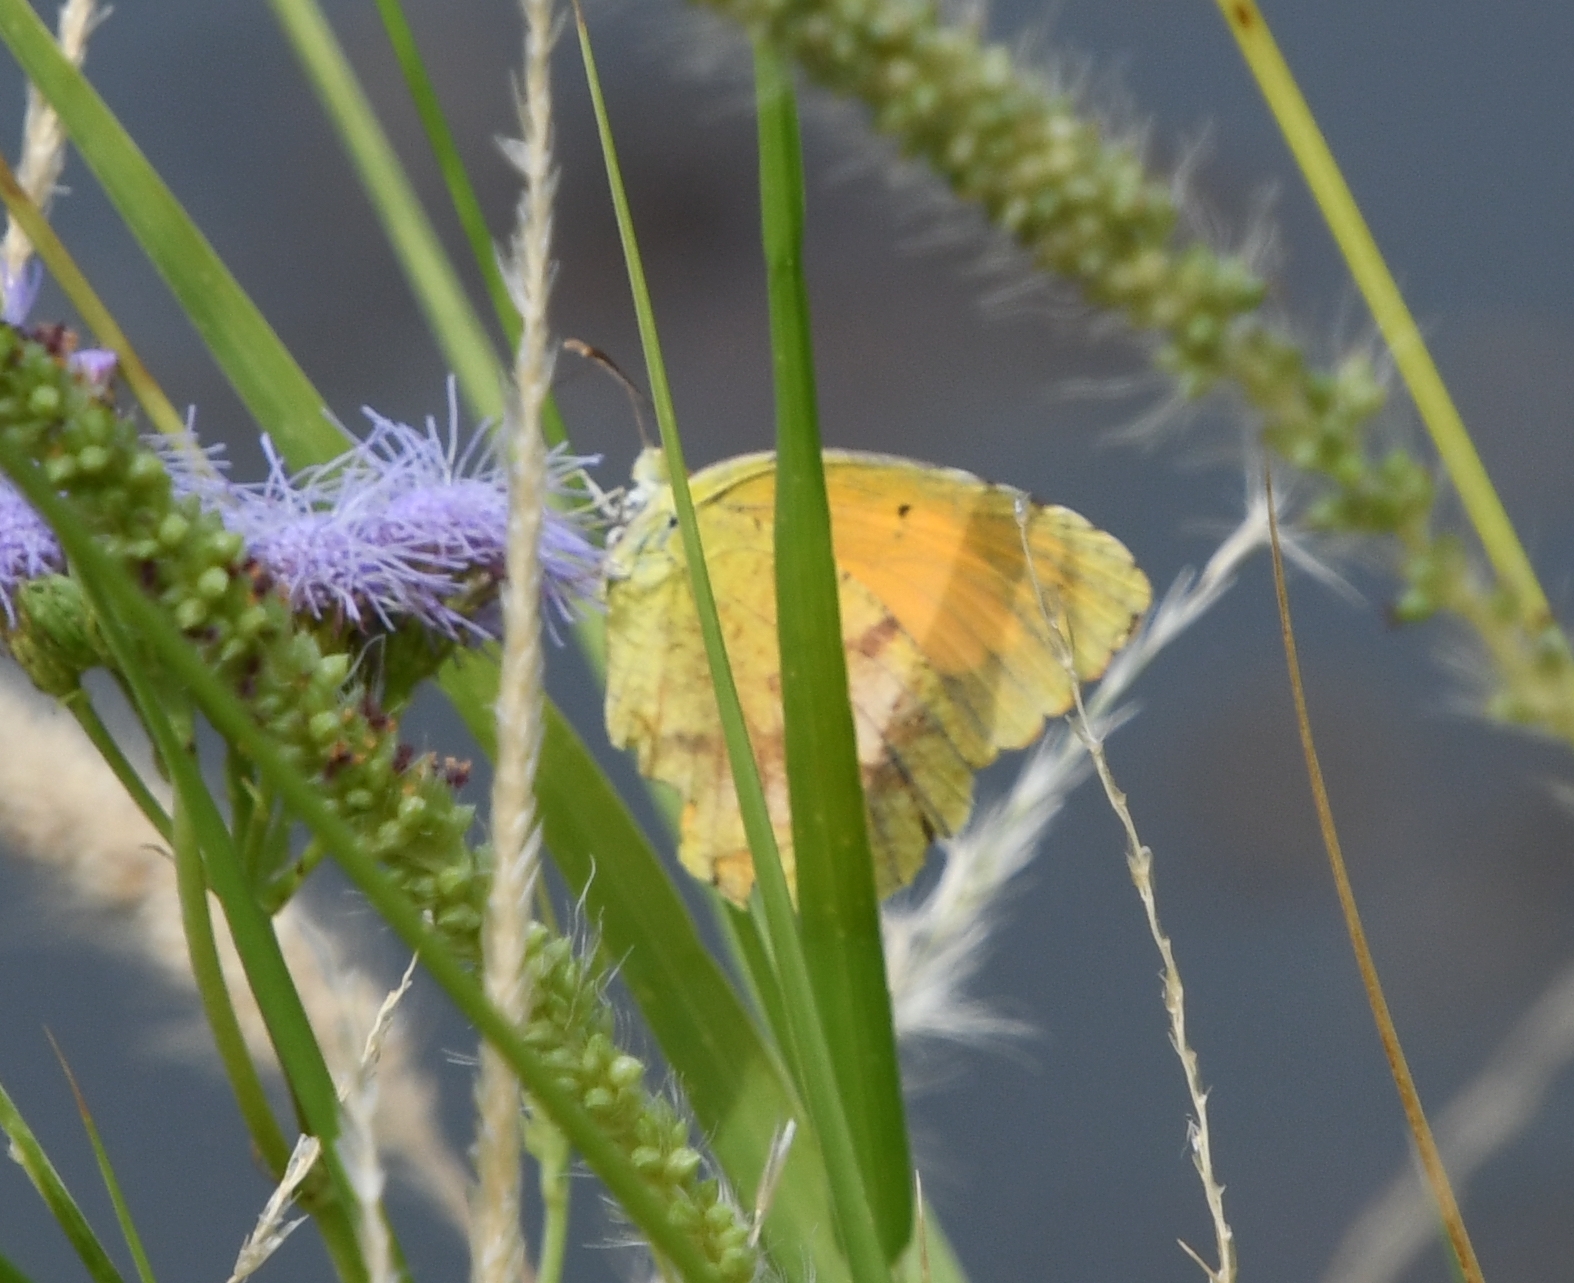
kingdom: Animalia
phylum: Arthropoda
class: Insecta
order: Lepidoptera
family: Pieridae
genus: Abaeis
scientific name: Abaeis nicippe
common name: Sleepy orange
